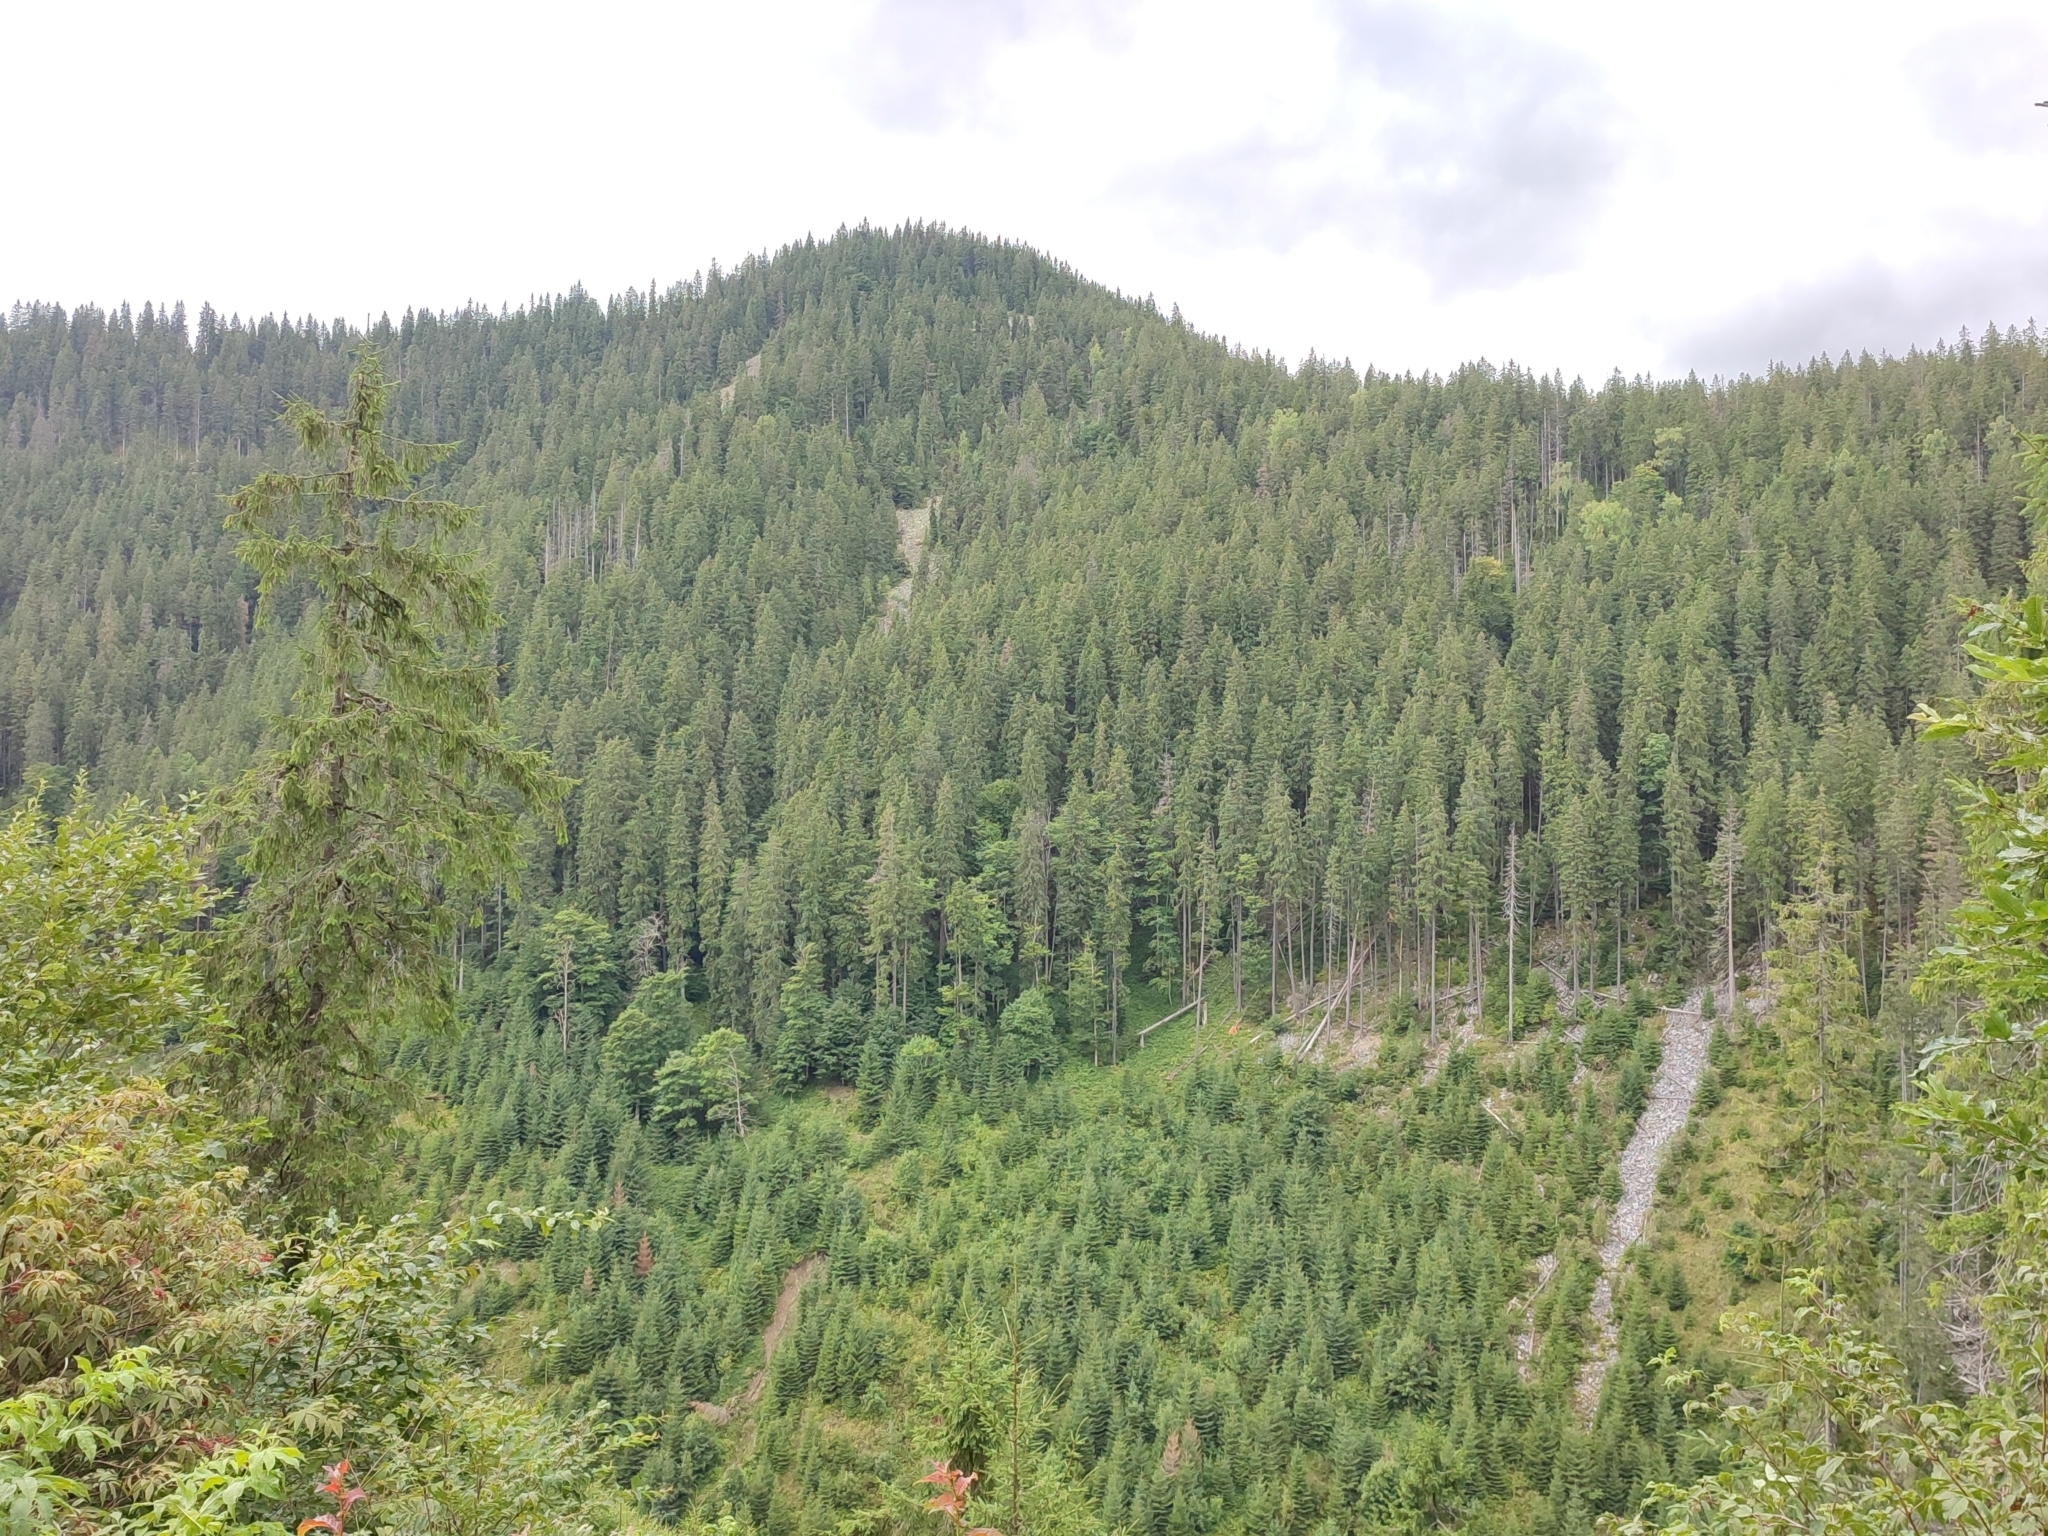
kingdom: Plantae
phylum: Tracheophyta
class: Pinopsida
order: Pinales
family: Pinaceae
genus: Picea
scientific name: Picea abies
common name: Norway spruce
